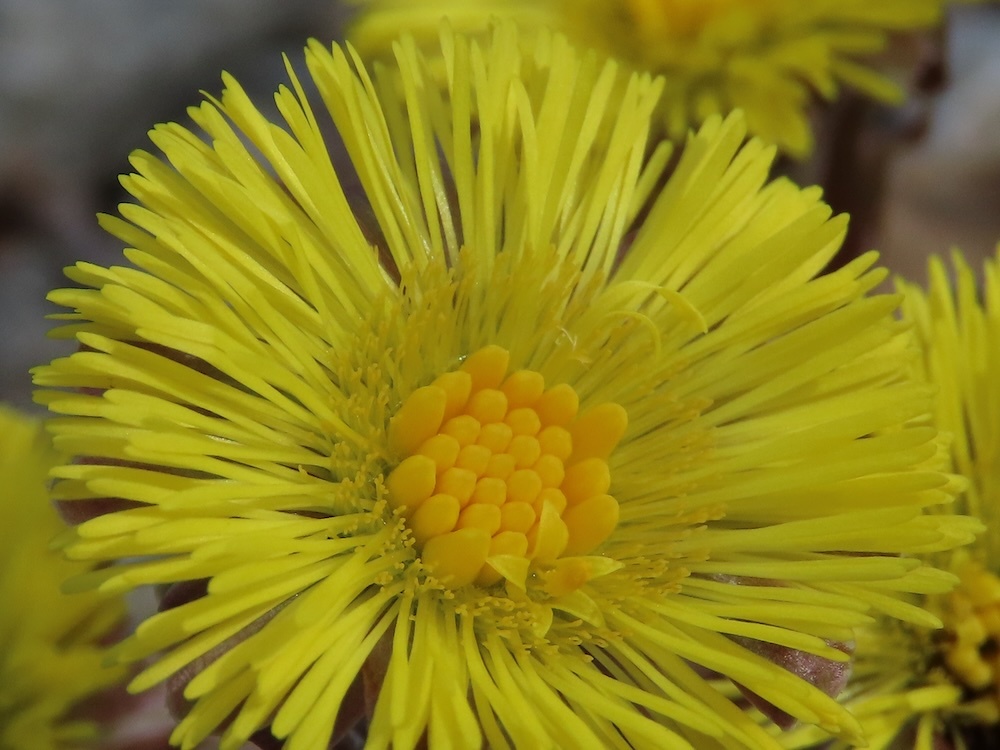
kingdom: Plantae
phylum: Tracheophyta
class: Magnoliopsida
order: Asterales
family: Asteraceae
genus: Tussilago
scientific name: Tussilago farfara
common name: Coltsfoot
